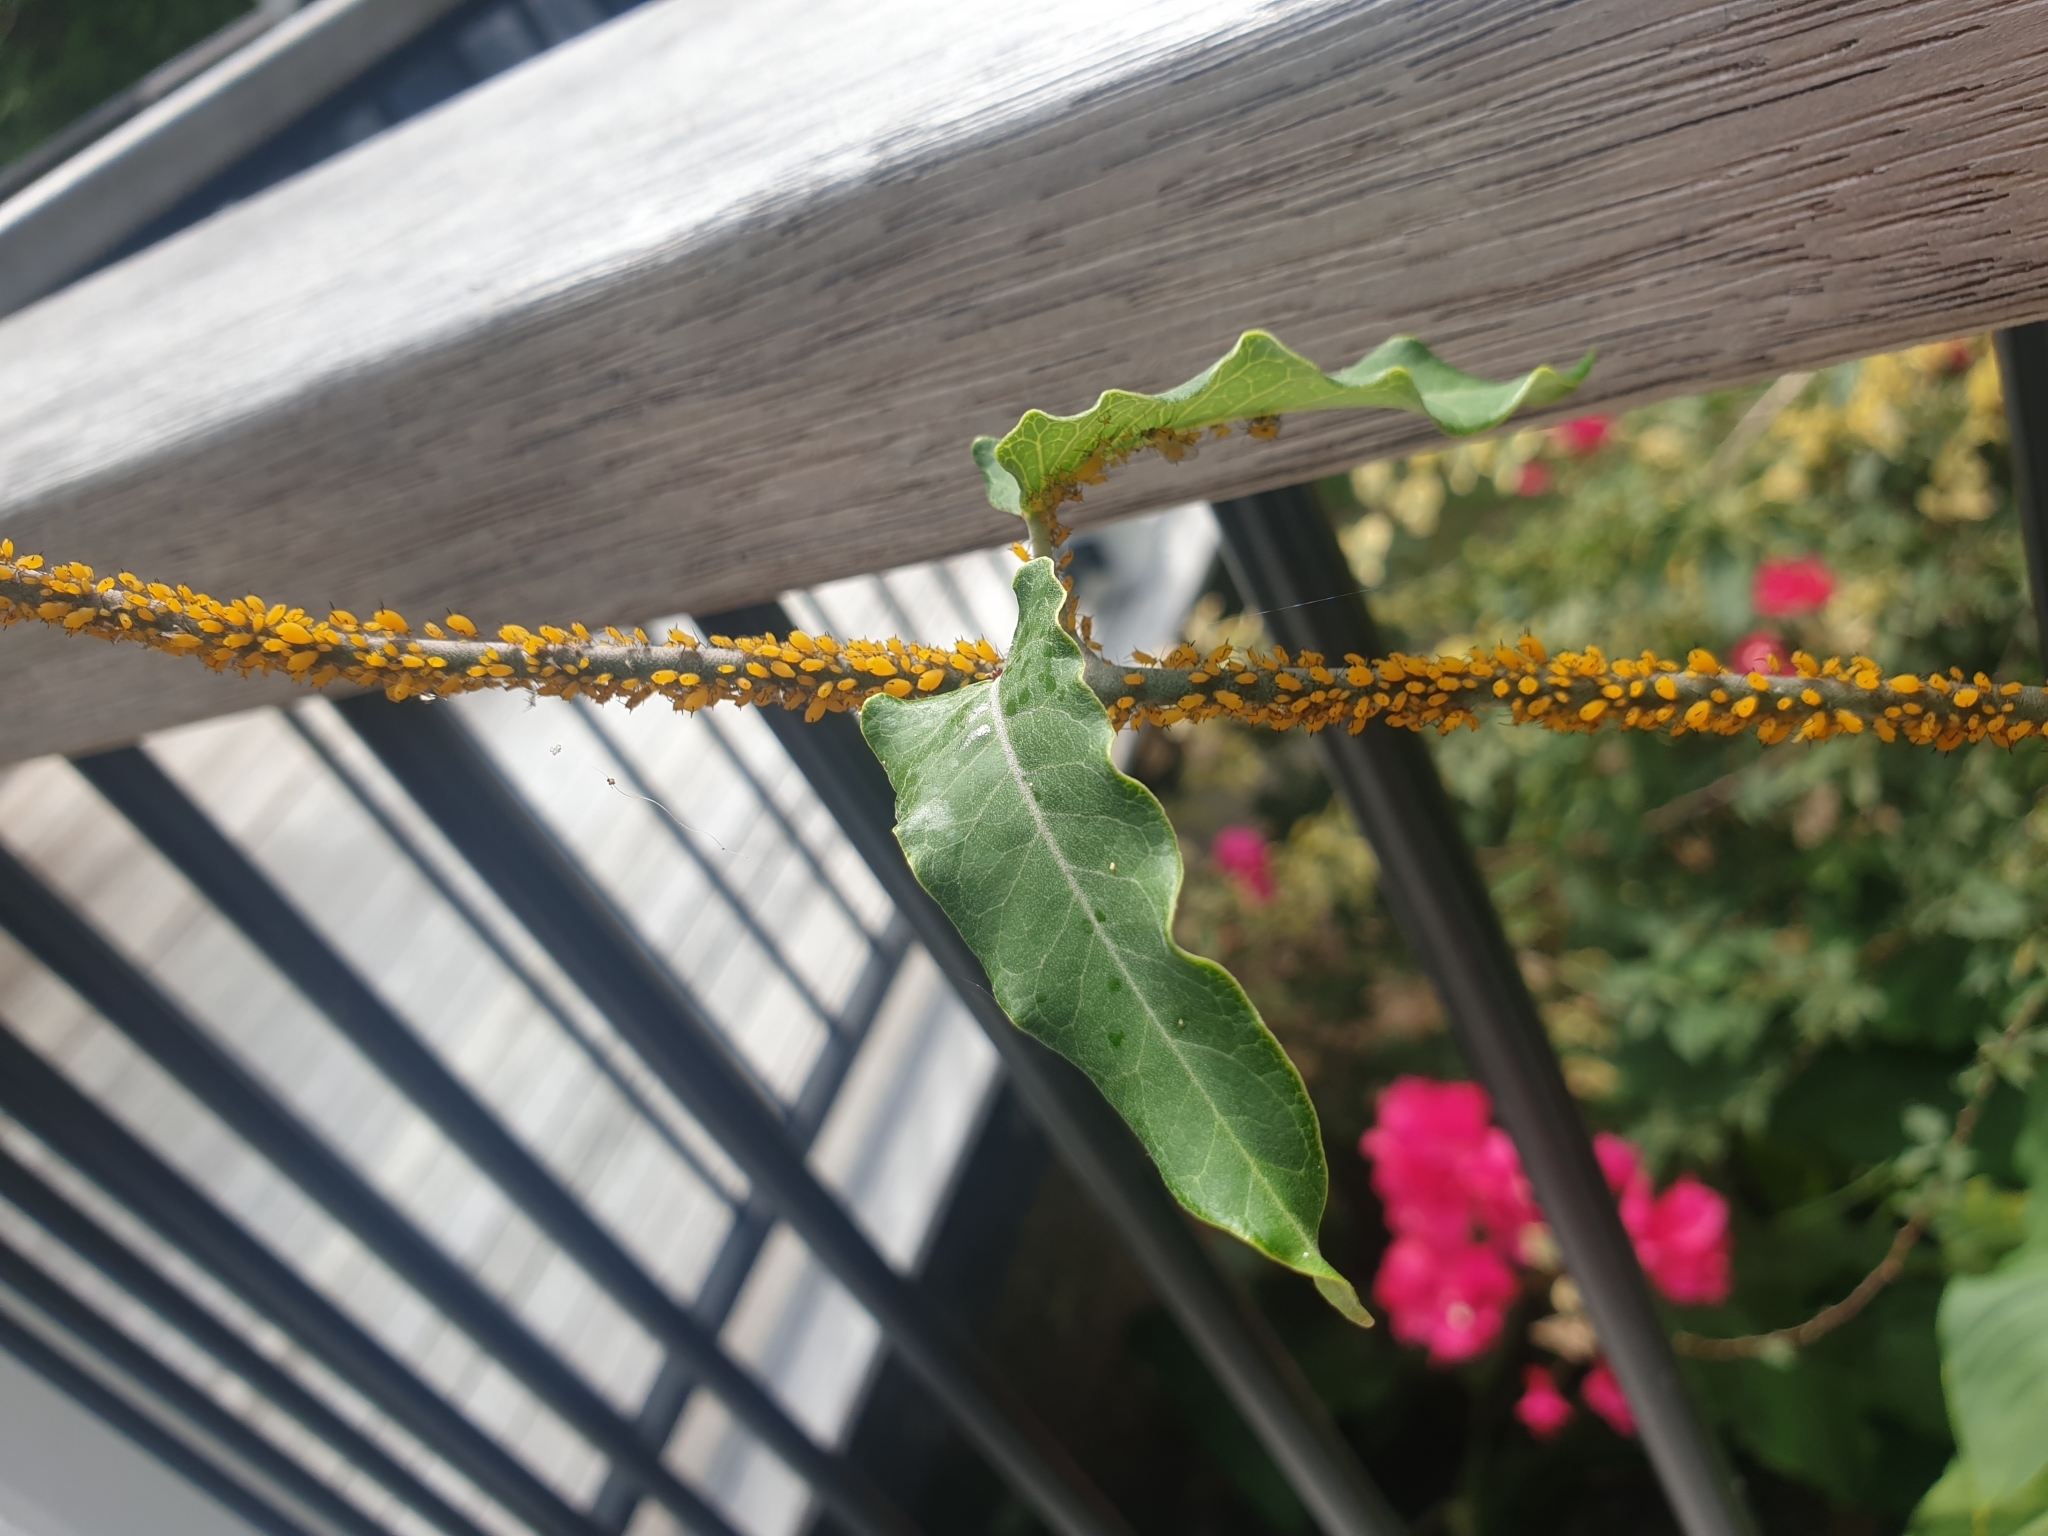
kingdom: Animalia
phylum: Arthropoda
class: Insecta
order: Hemiptera
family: Aphididae
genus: Aphis
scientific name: Aphis nerii
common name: Oleander aphid
